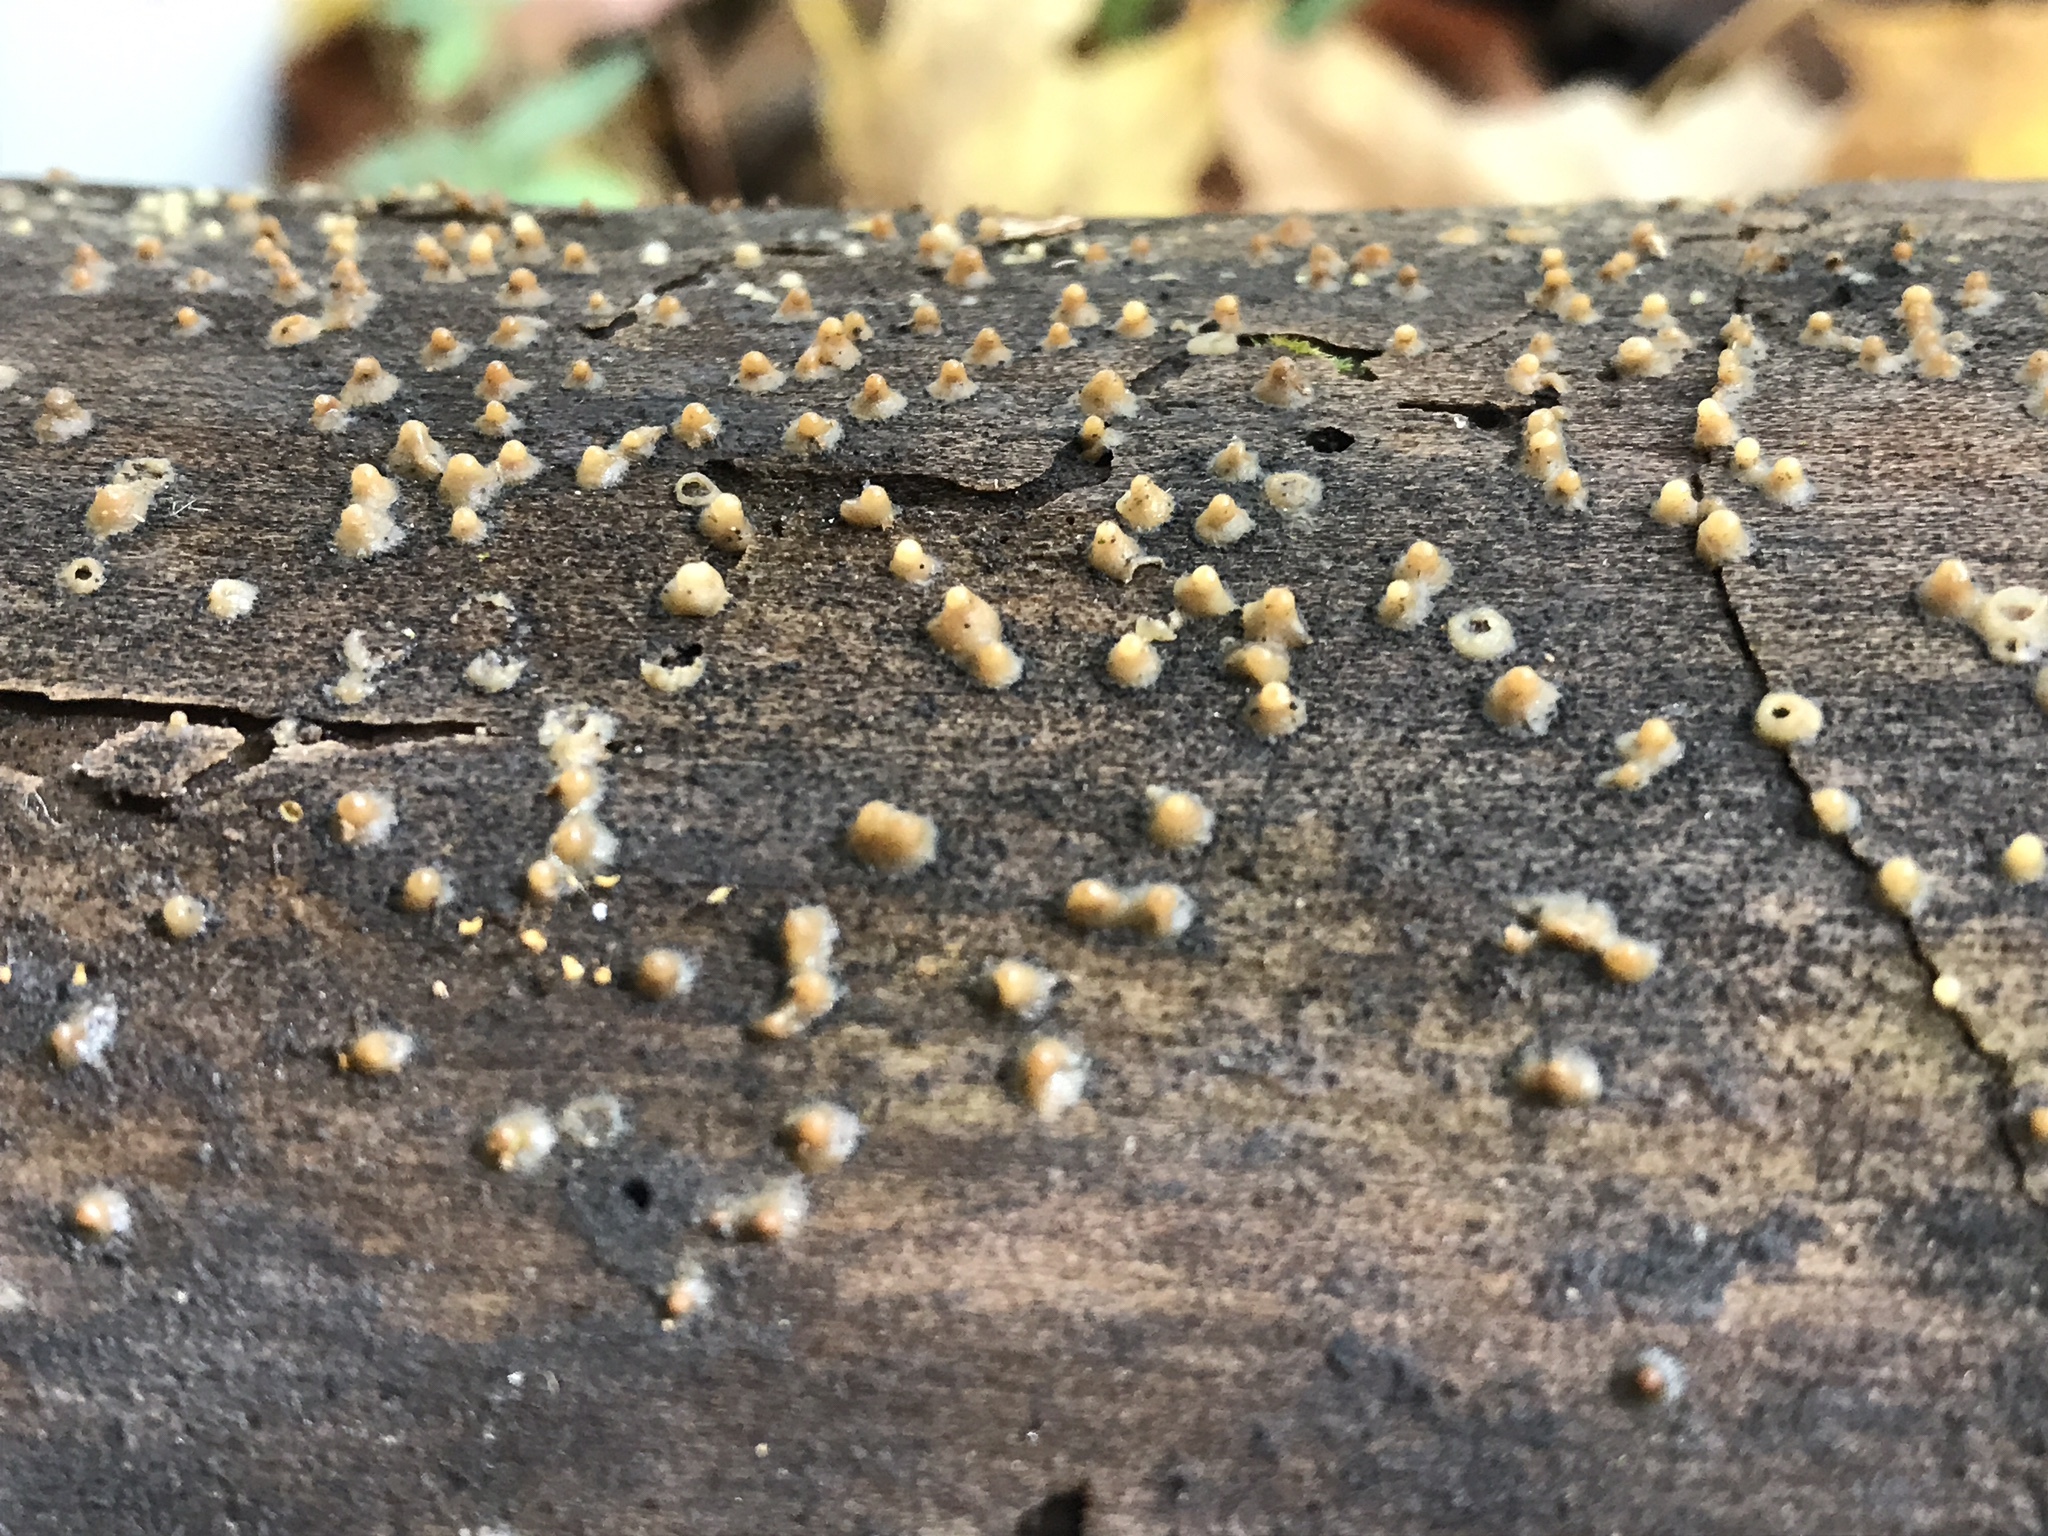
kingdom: Fungi
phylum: Basidiomycota
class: Atractiellomycetes
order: Atractiellales
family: Phleogenaceae
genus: Helicogloea
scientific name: Helicogloea compressa
